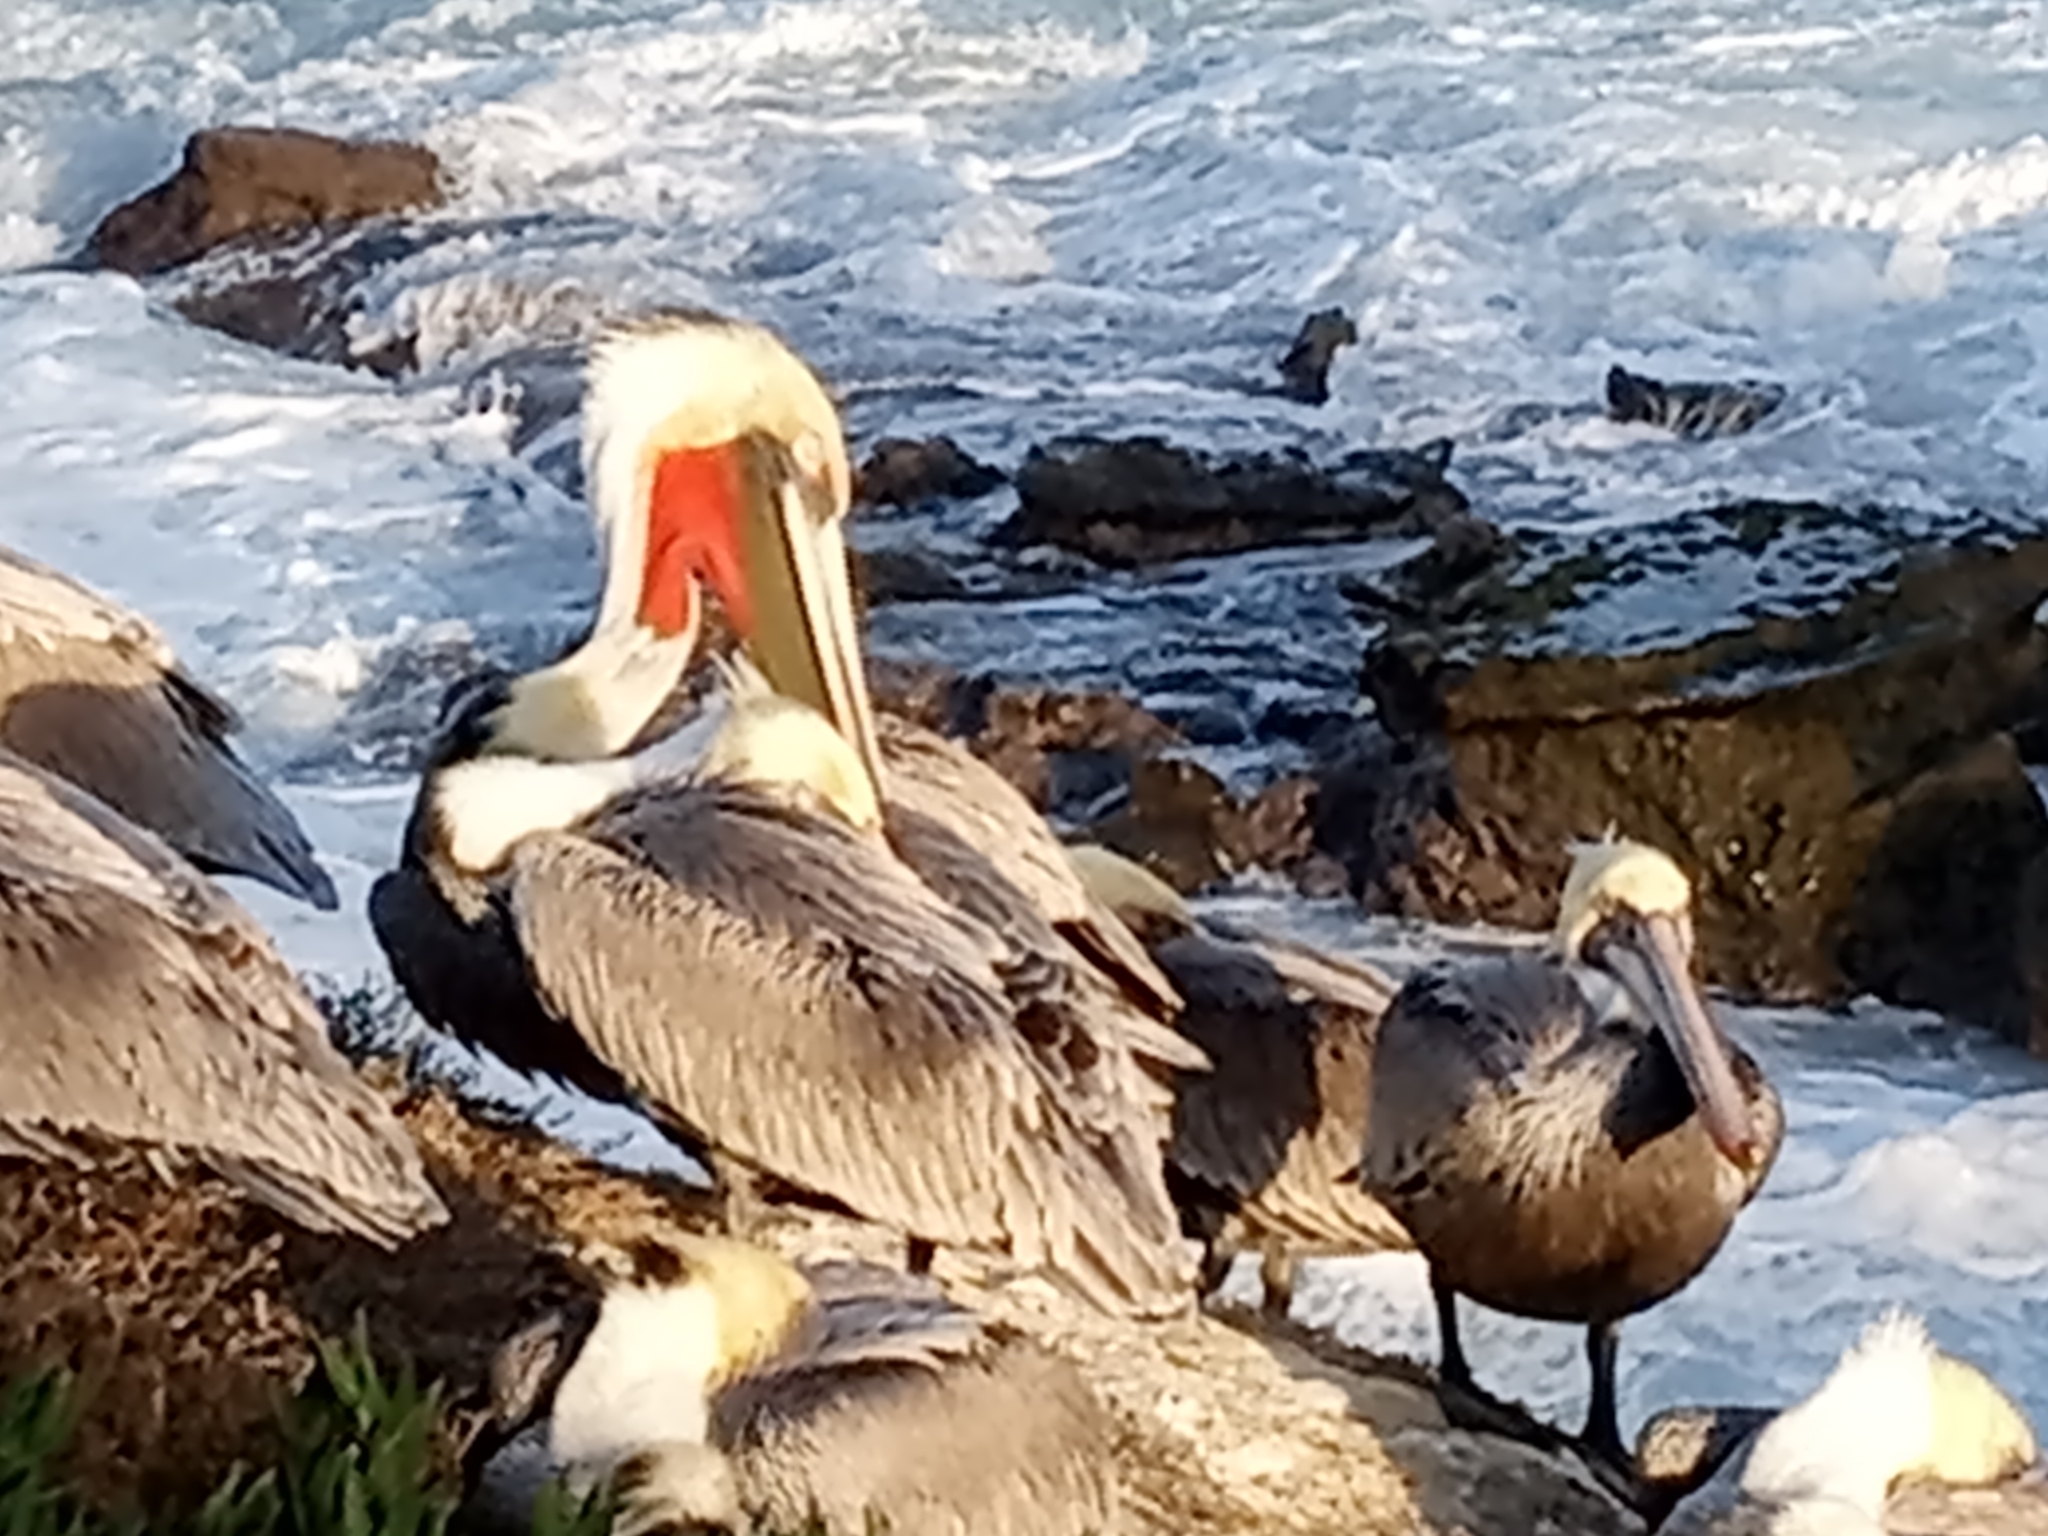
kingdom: Animalia
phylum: Chordata
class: Aves
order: Pelecaniformes
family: Pelecanidae
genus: Pelecanus
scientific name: Pelecanus occidentalis
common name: Brown pelican
